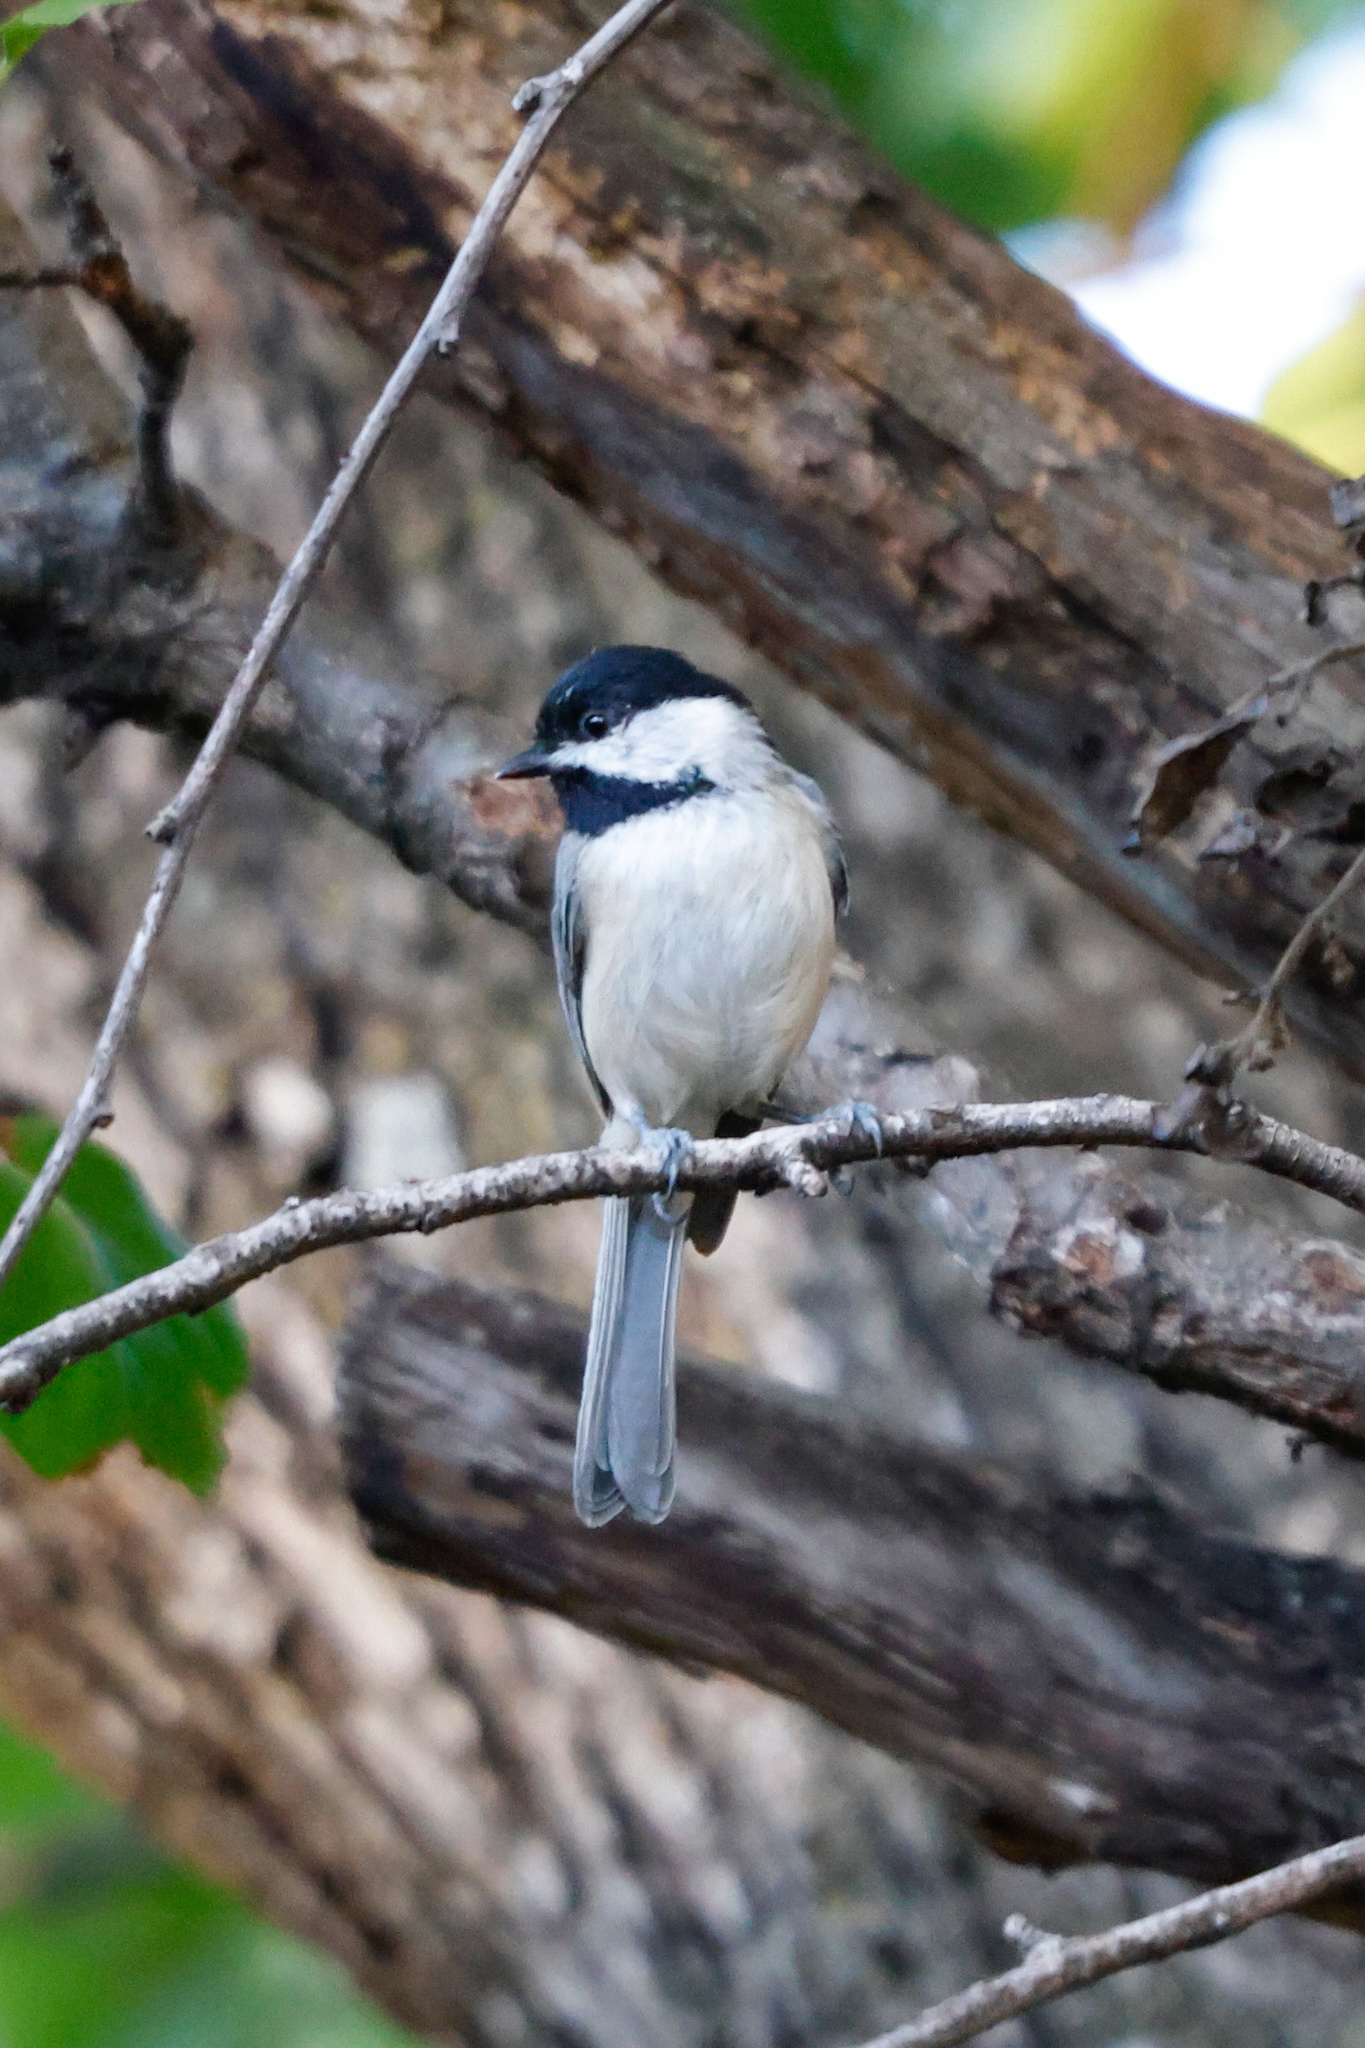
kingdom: Animalia
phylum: Chordata
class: Aves
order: Passeriformes
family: Paridae
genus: Poecile
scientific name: Poecile carolinensis
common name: Carolina chickadee
